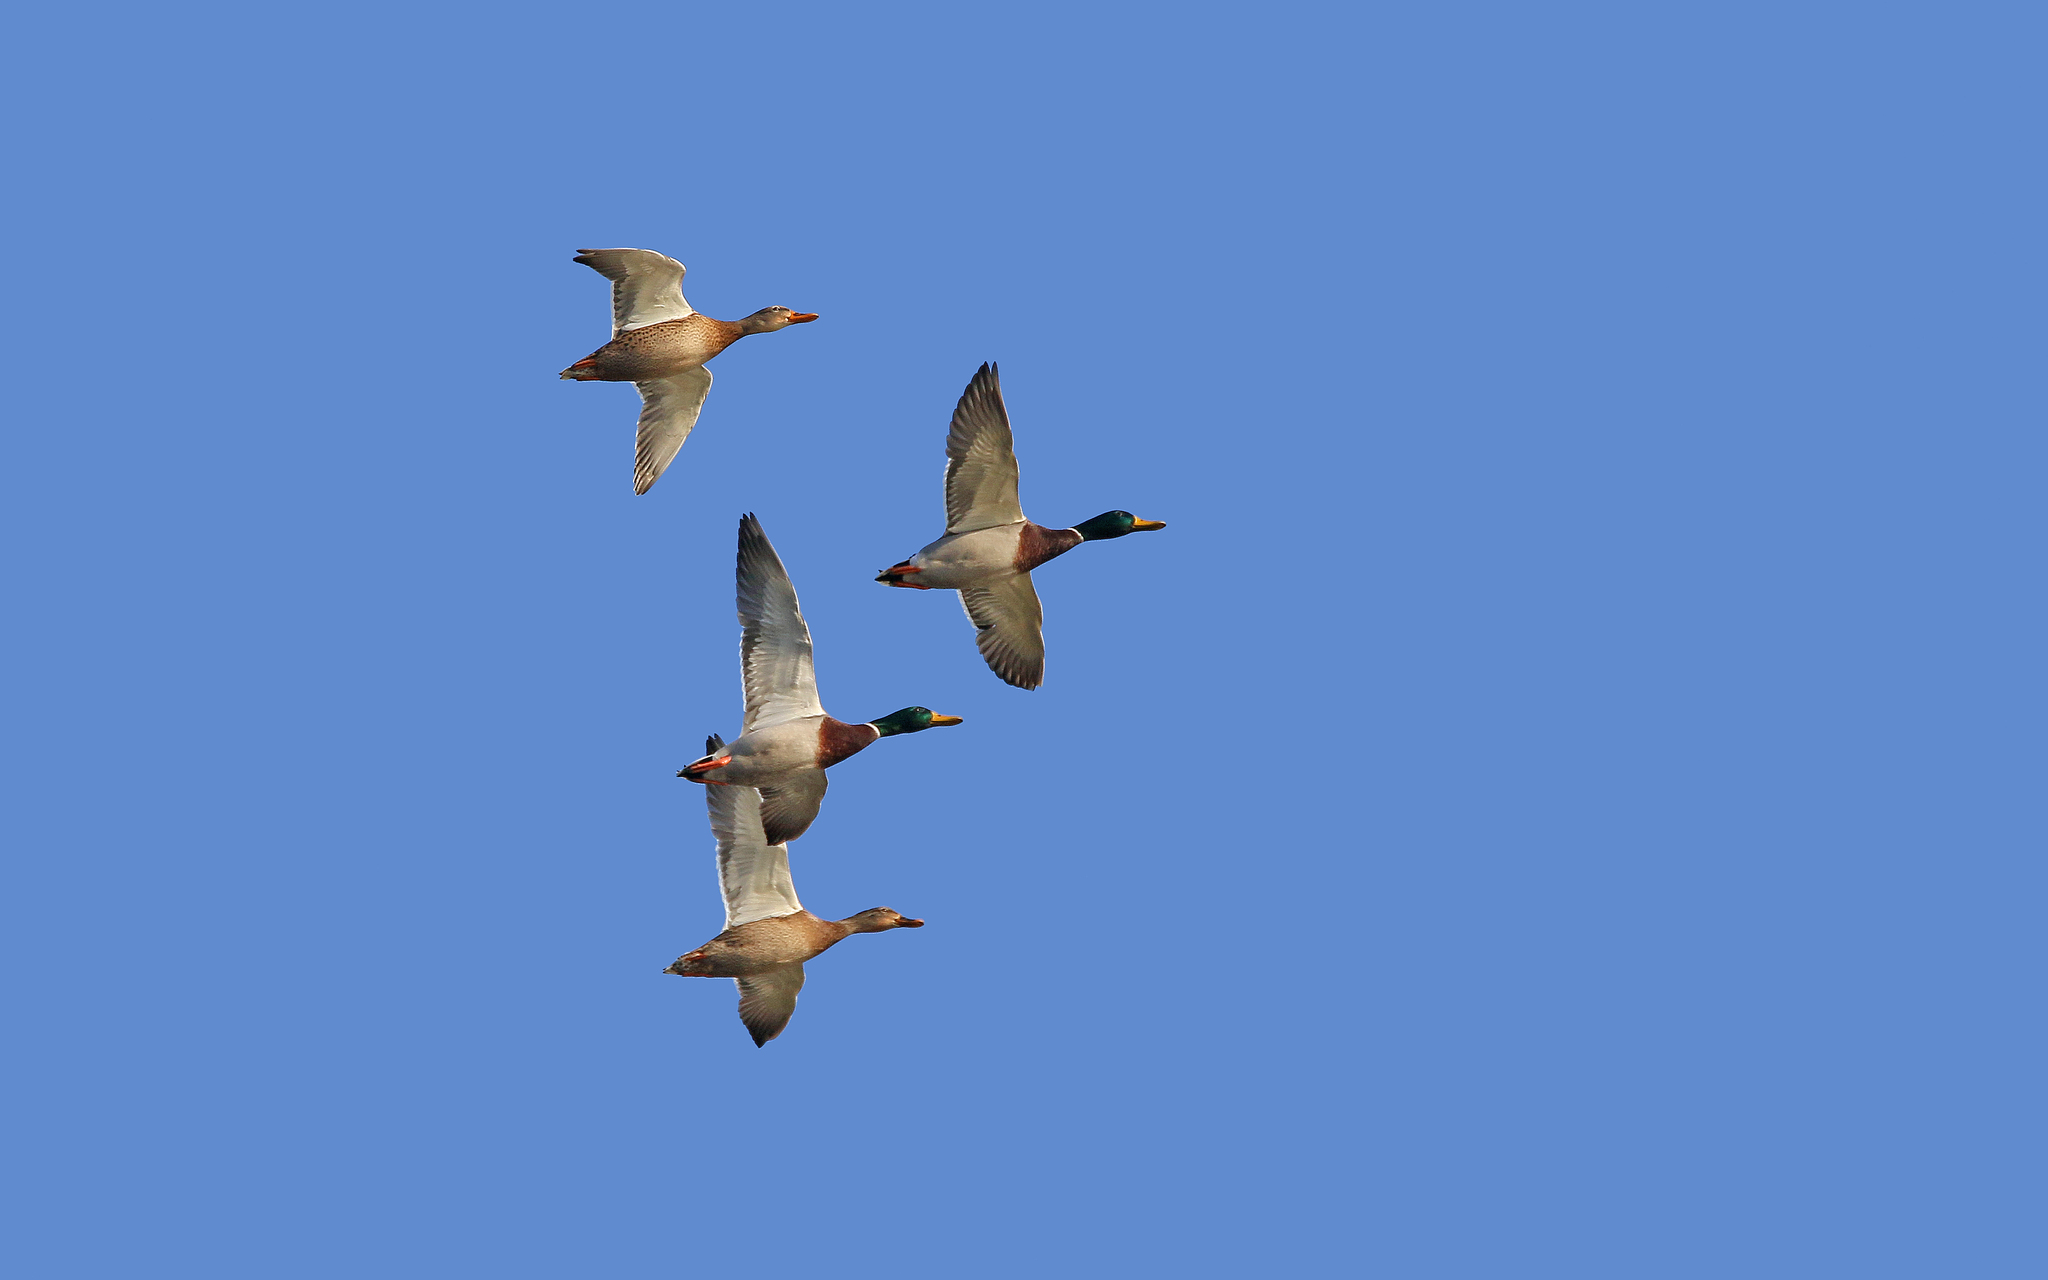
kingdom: Animalia
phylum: Chordata
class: Aves
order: Anseriformes
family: Anatidae
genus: Anas
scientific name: Anas platyrhynchos
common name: Mallard
